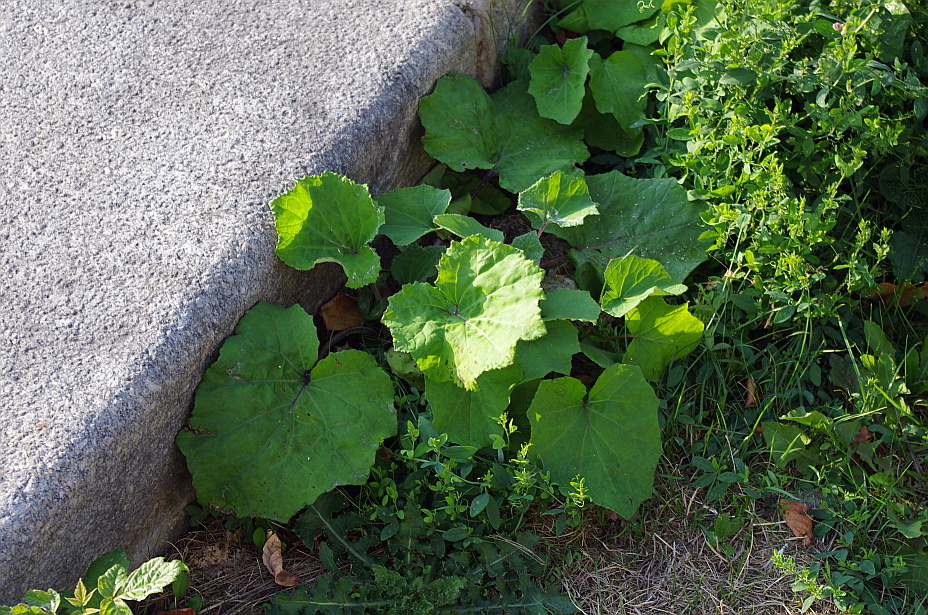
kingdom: Plantae
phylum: Tracheophyta
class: Magnoliopsida
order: Asterales
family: Asteraceae
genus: Tussilago
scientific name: Tussilago farfara
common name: Coltsfoot
